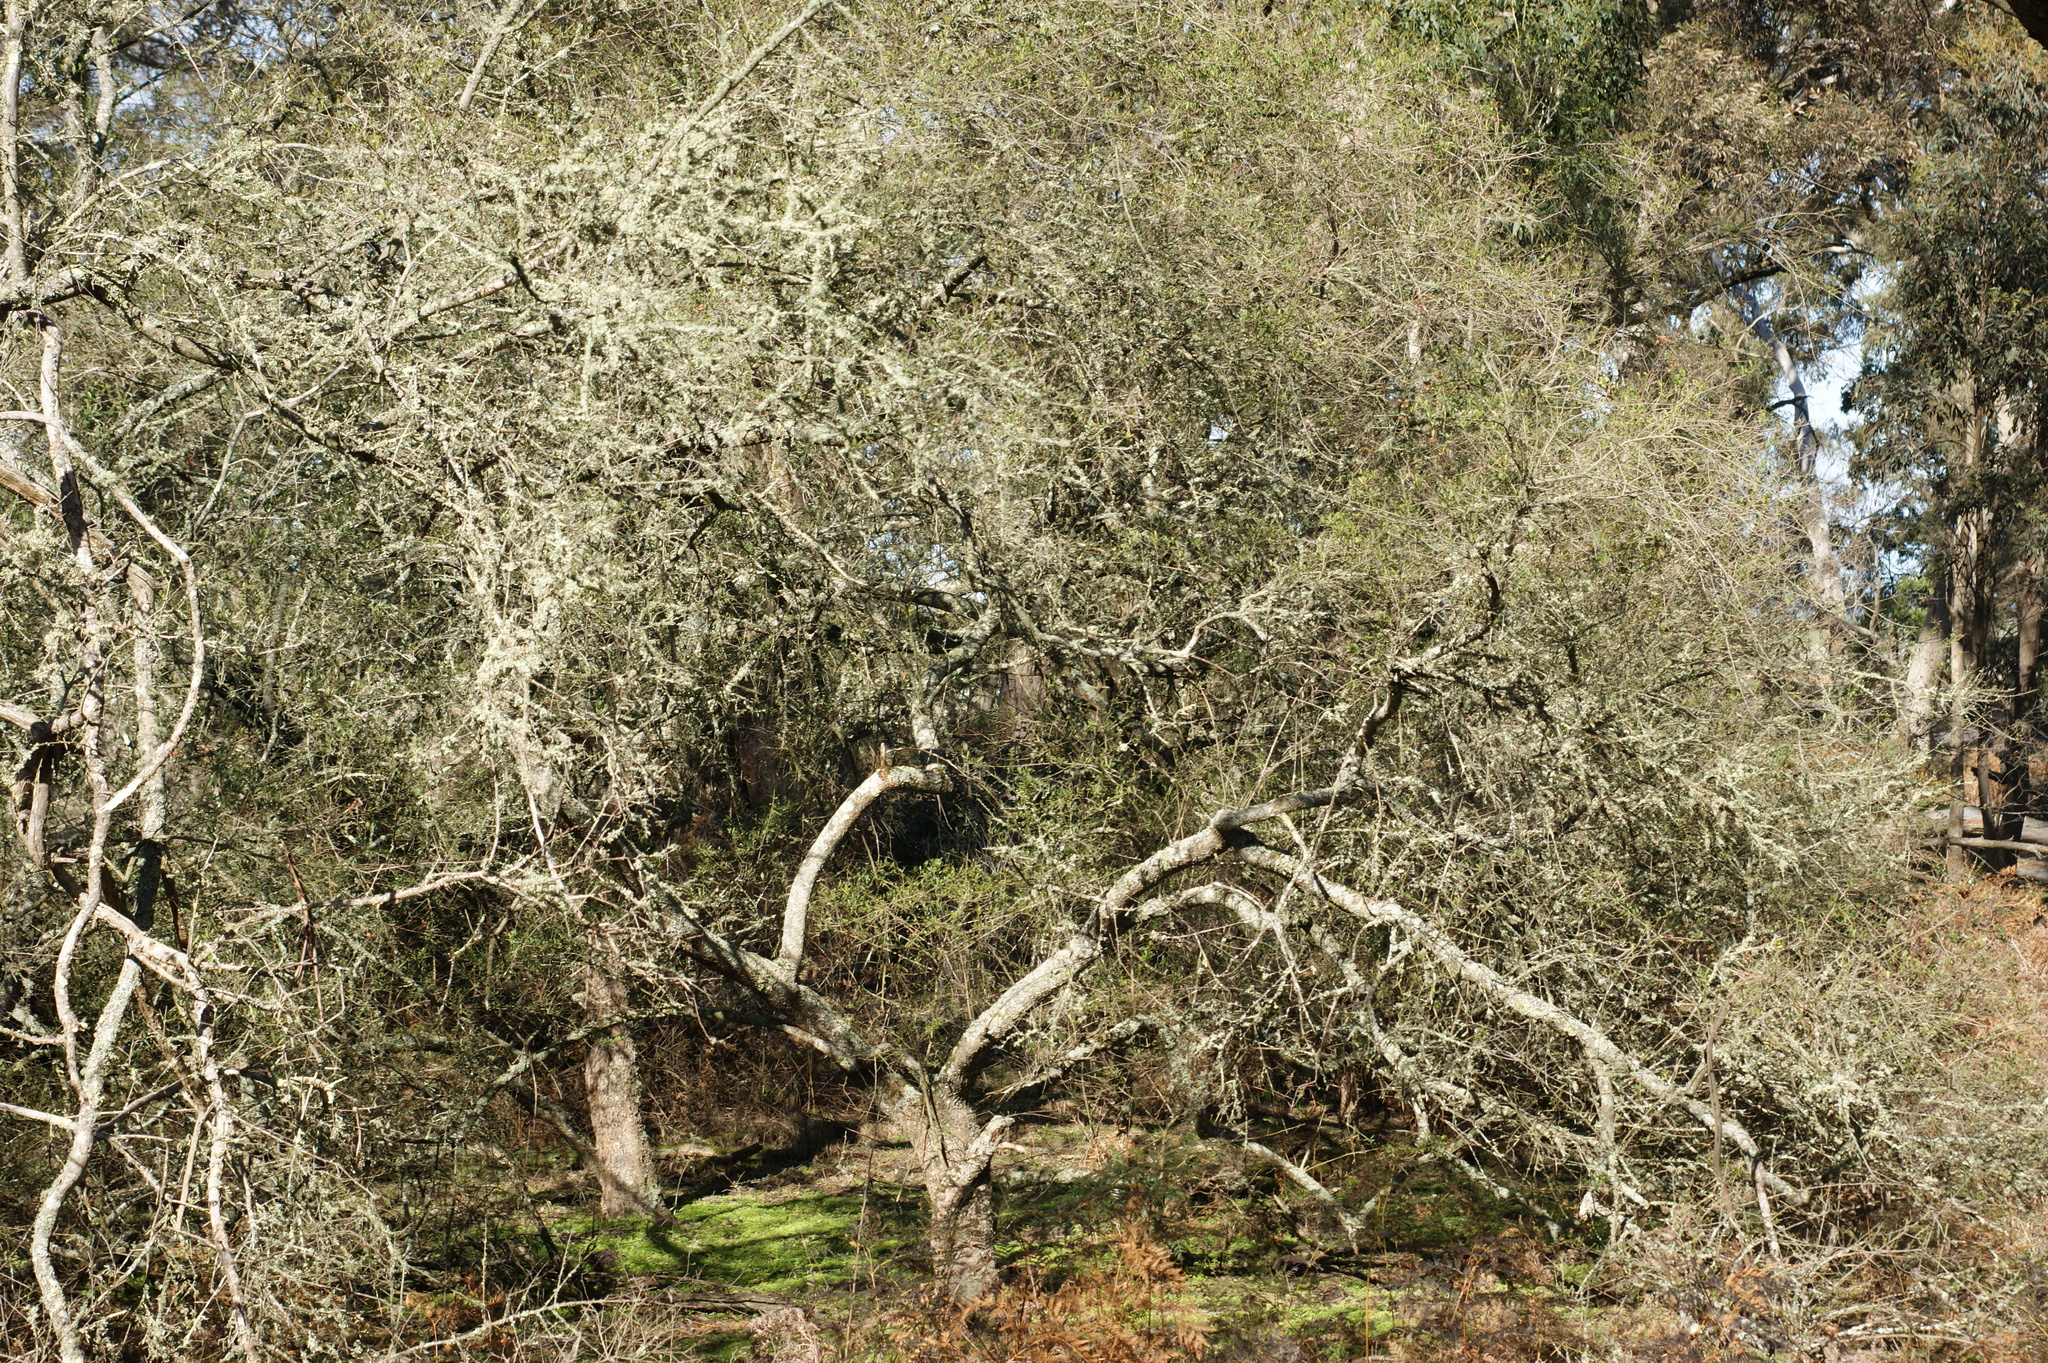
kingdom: Plantae
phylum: Tracheophyta
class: Magnoliopsida
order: Apiales
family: Pittosporaceae
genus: Bursaria
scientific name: Bursaria spinosa
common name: Australian blackthorn
